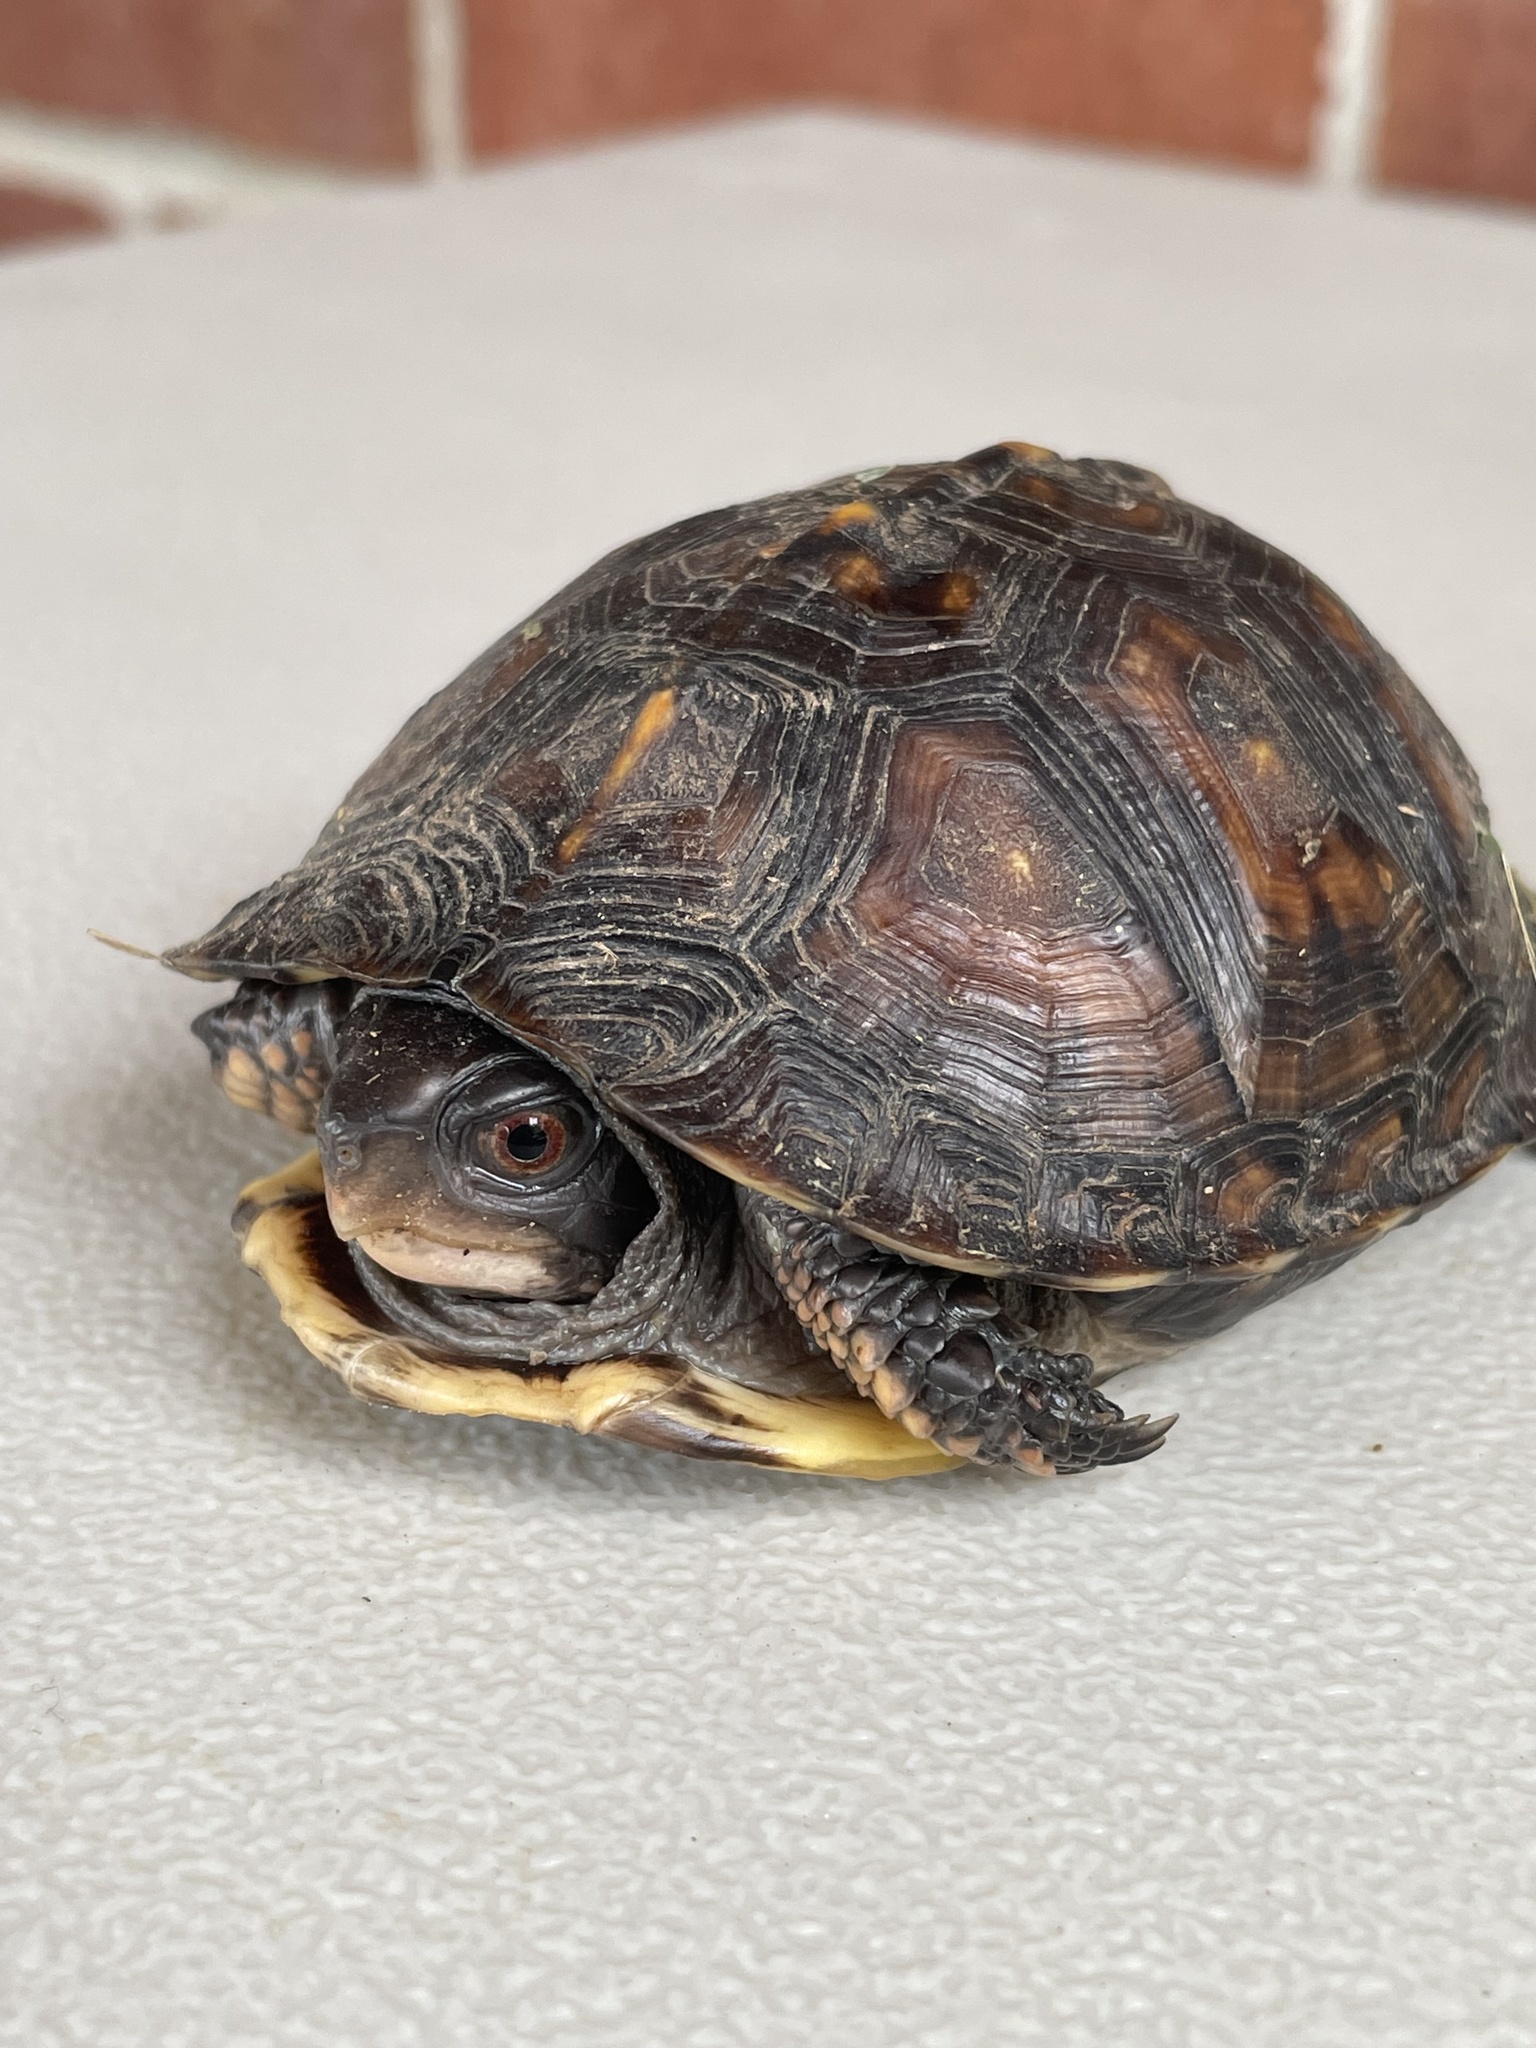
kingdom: Animalia
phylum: Chordata
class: Testudines
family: Emydidae
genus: Terrapene
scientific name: Terrapene carolina
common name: Common box turtle
